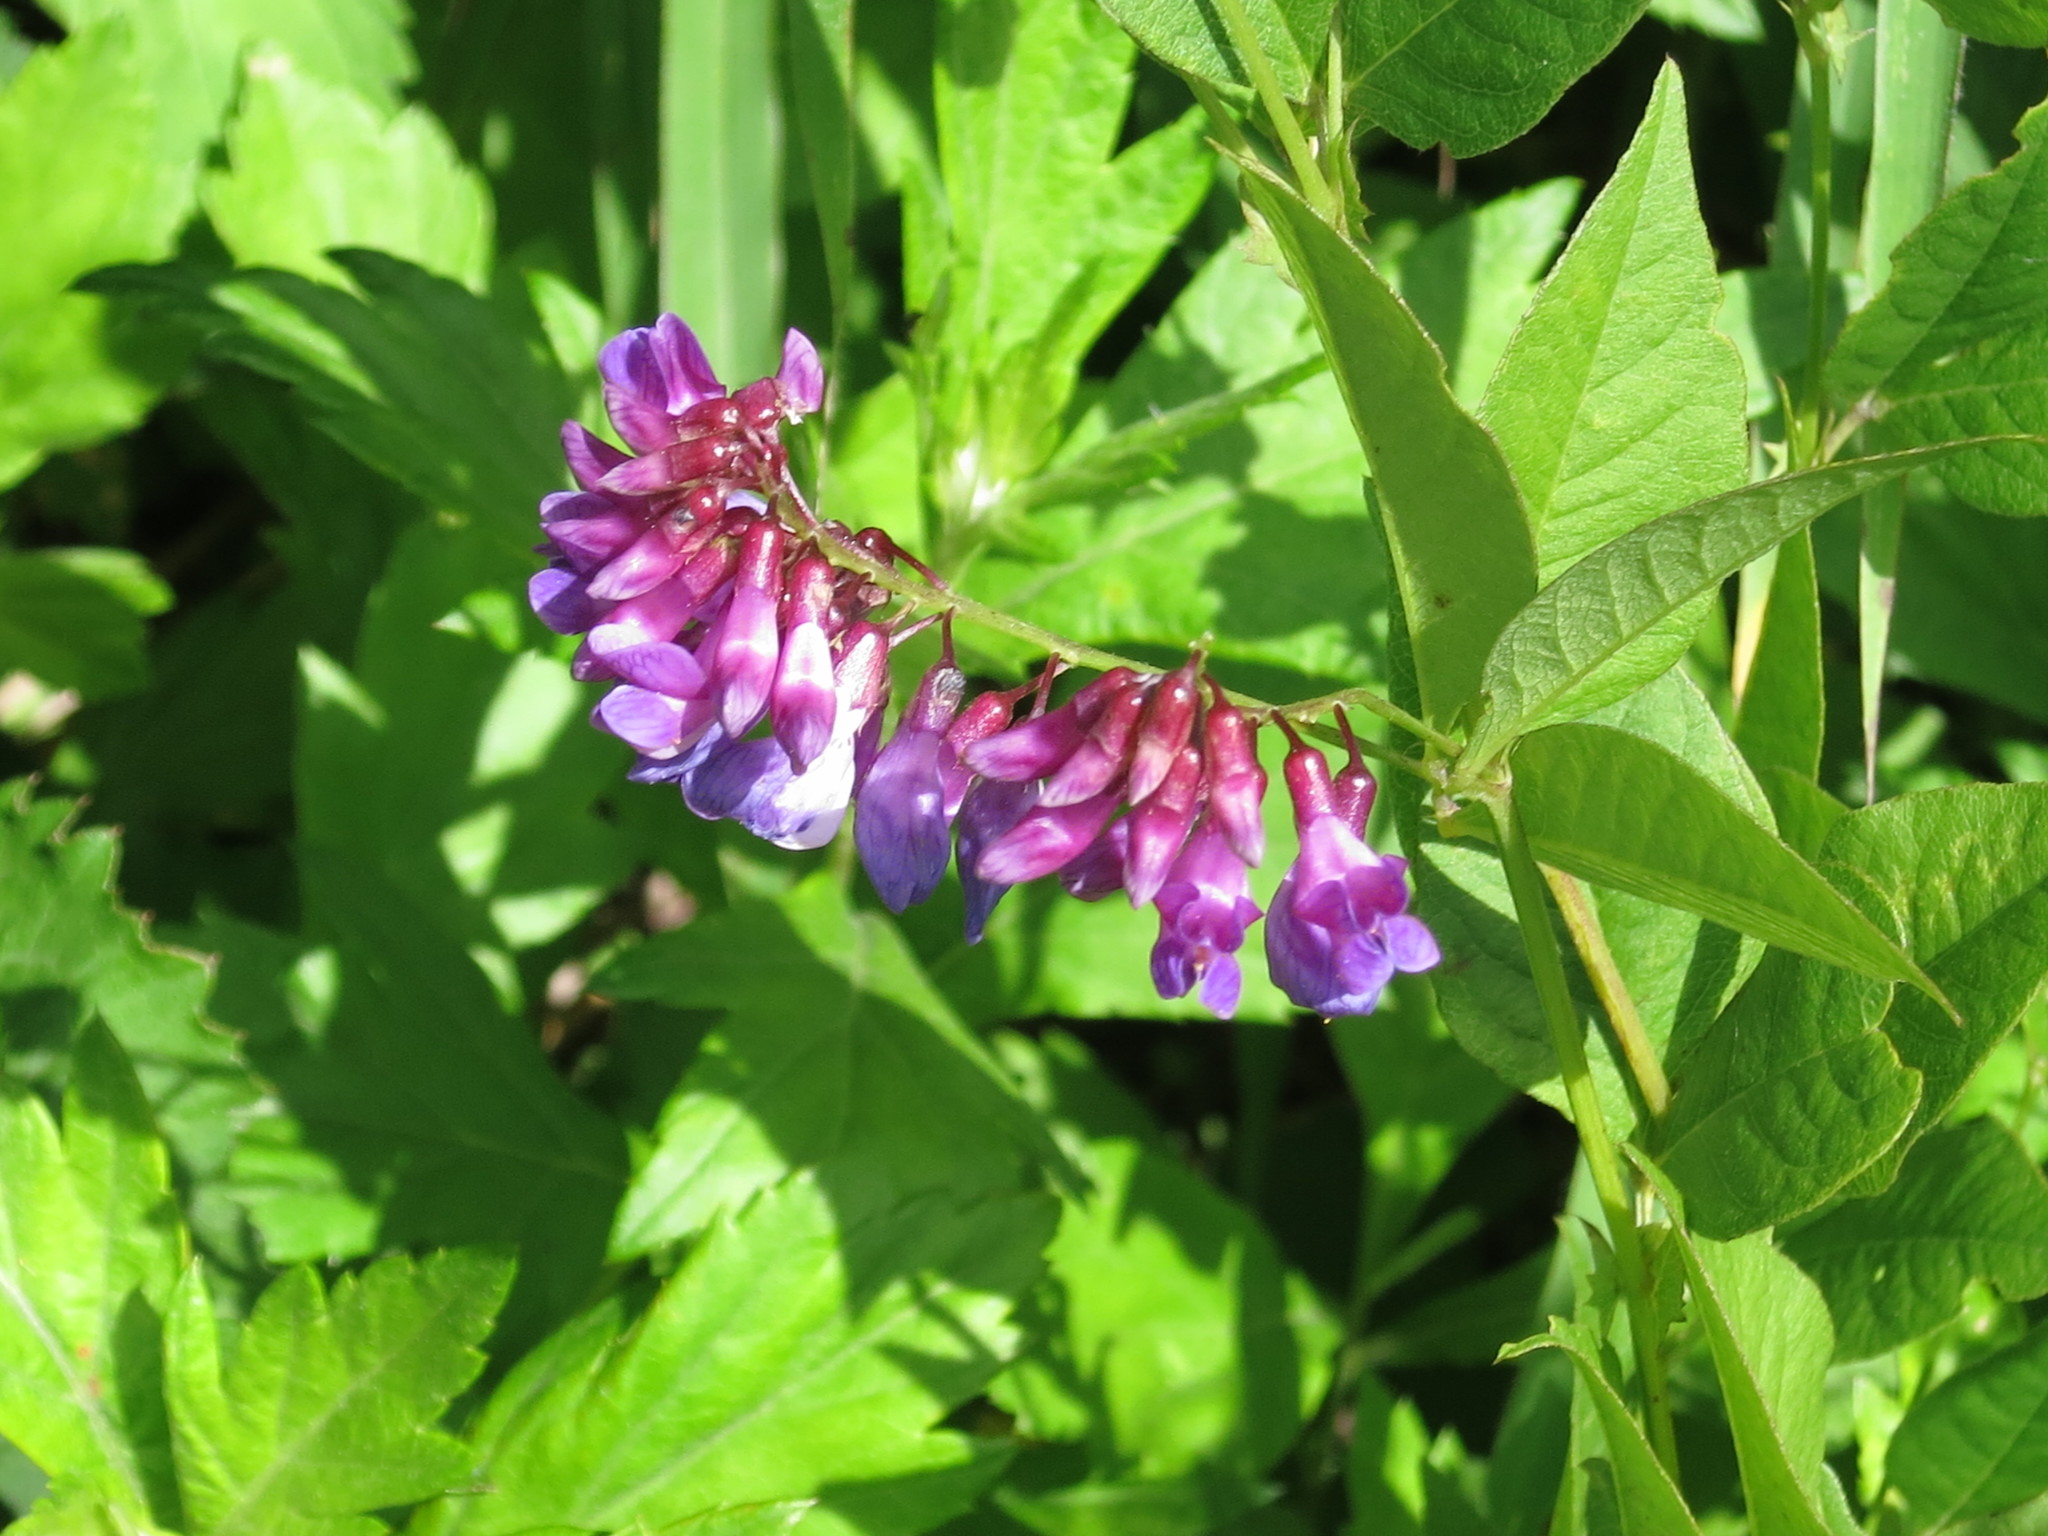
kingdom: Plantae
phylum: Tracheophyta
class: Magnoliopsida
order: Fabales
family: Fabaceae
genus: Vicia
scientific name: Vicia unijuga
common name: Two-leaf vetch
